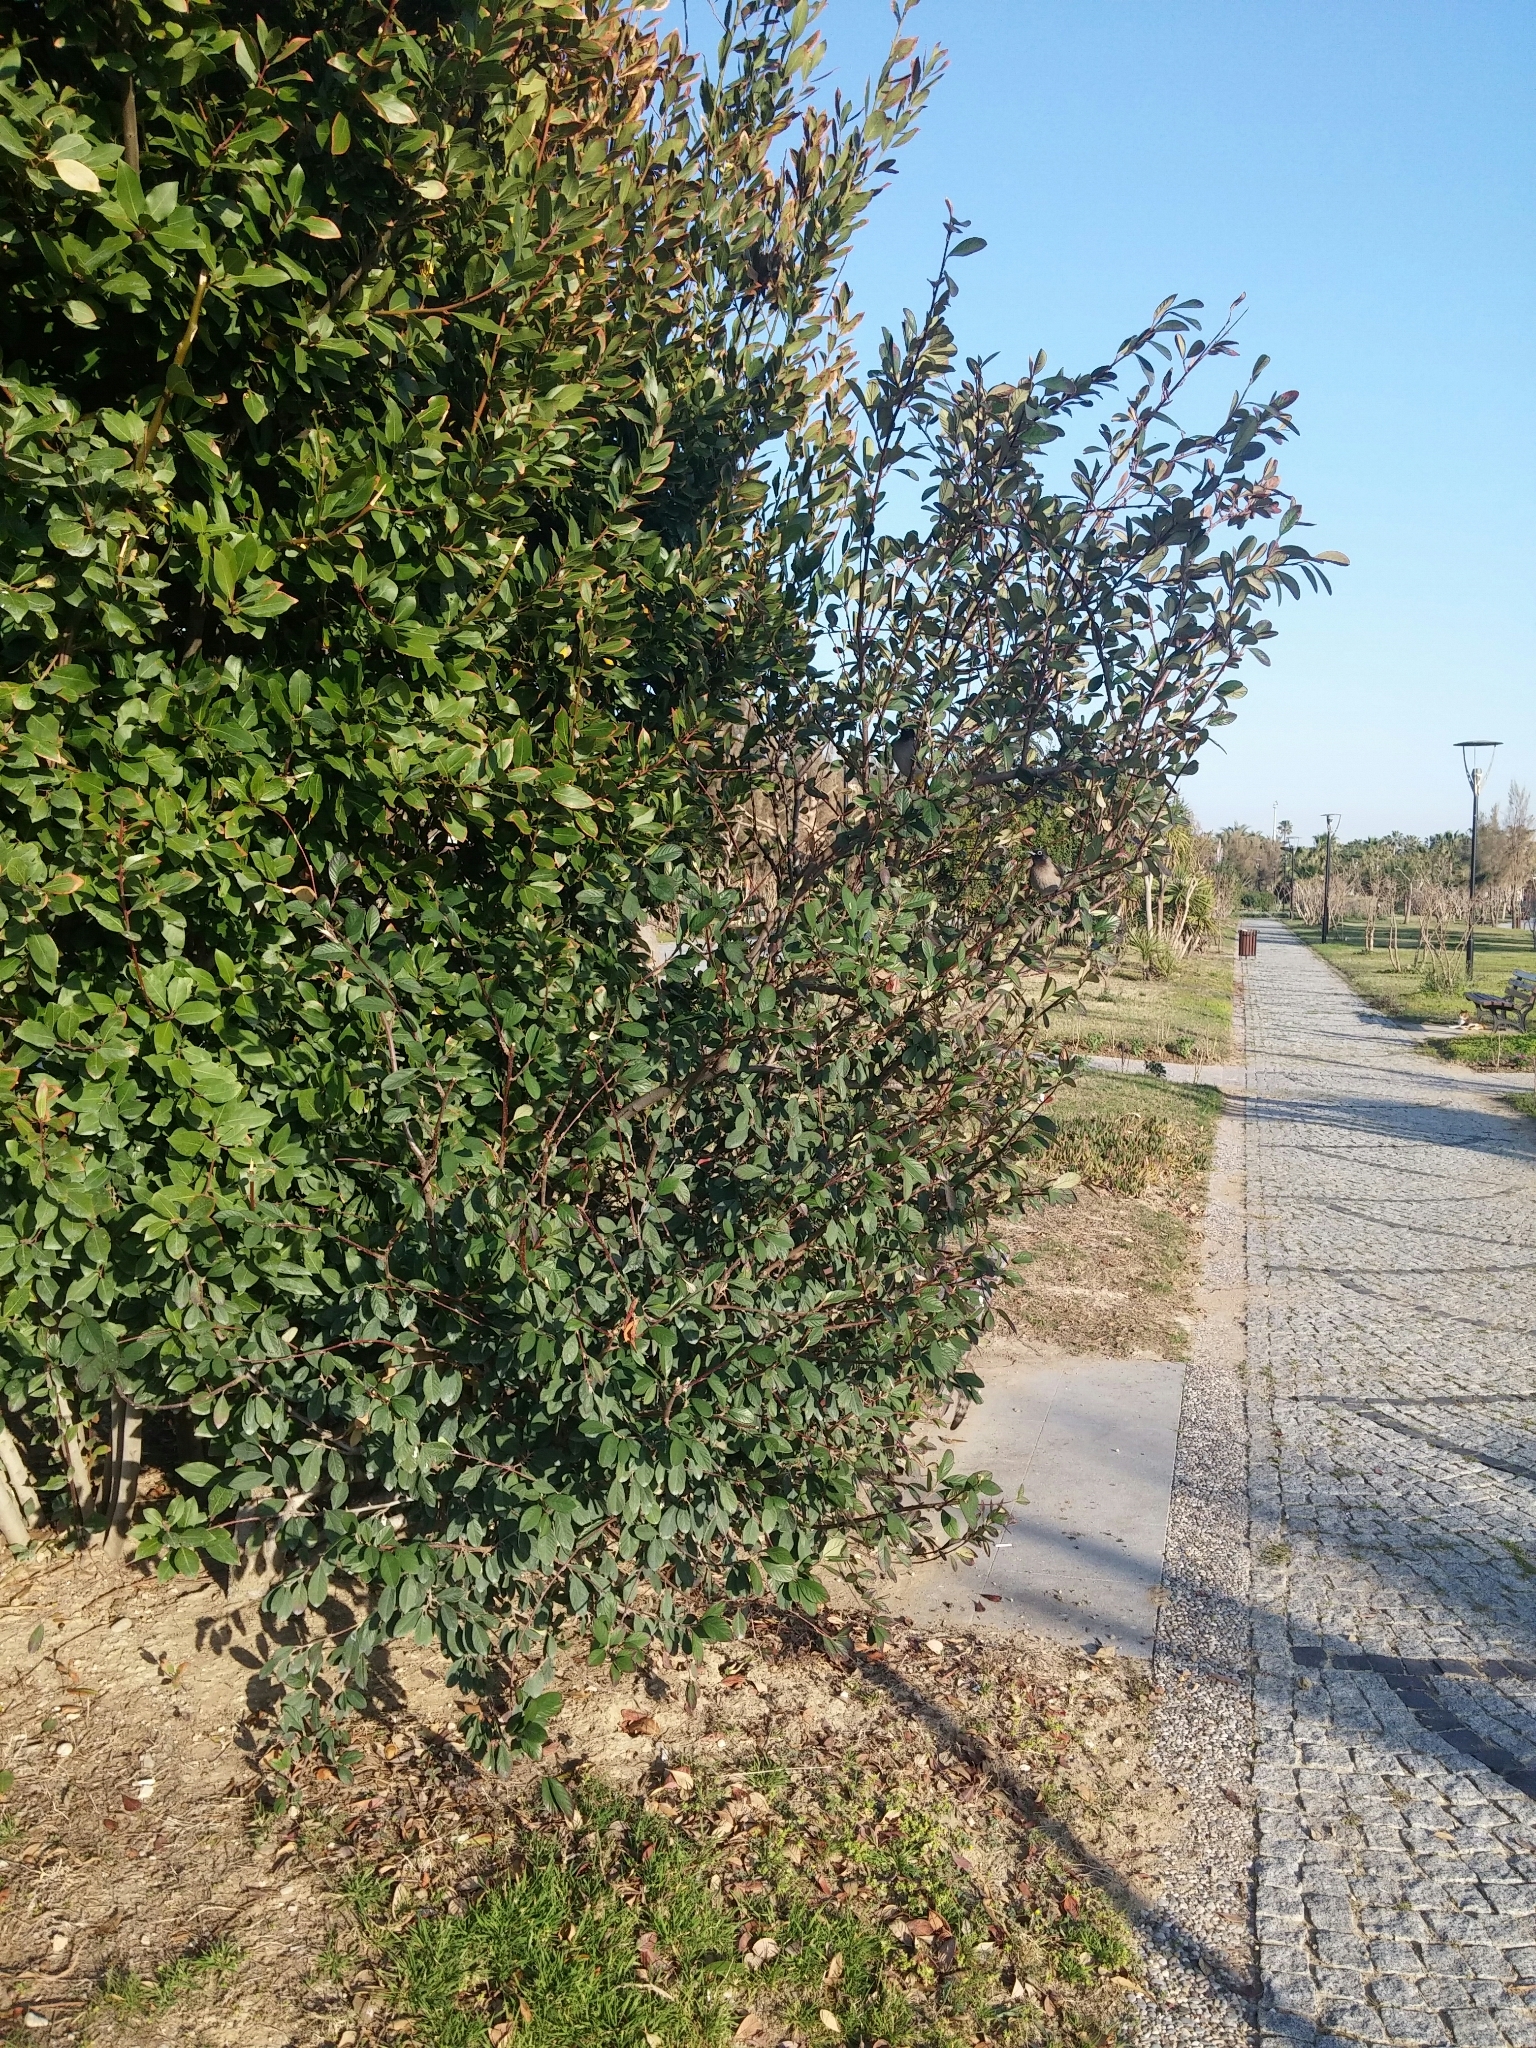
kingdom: Animalia
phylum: Chordata
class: Aves
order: Passeriformes
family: Pycnonotidae
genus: Pycnonotus
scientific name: Pycnonotus xanthopygos
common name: White-spectacled bulbul
